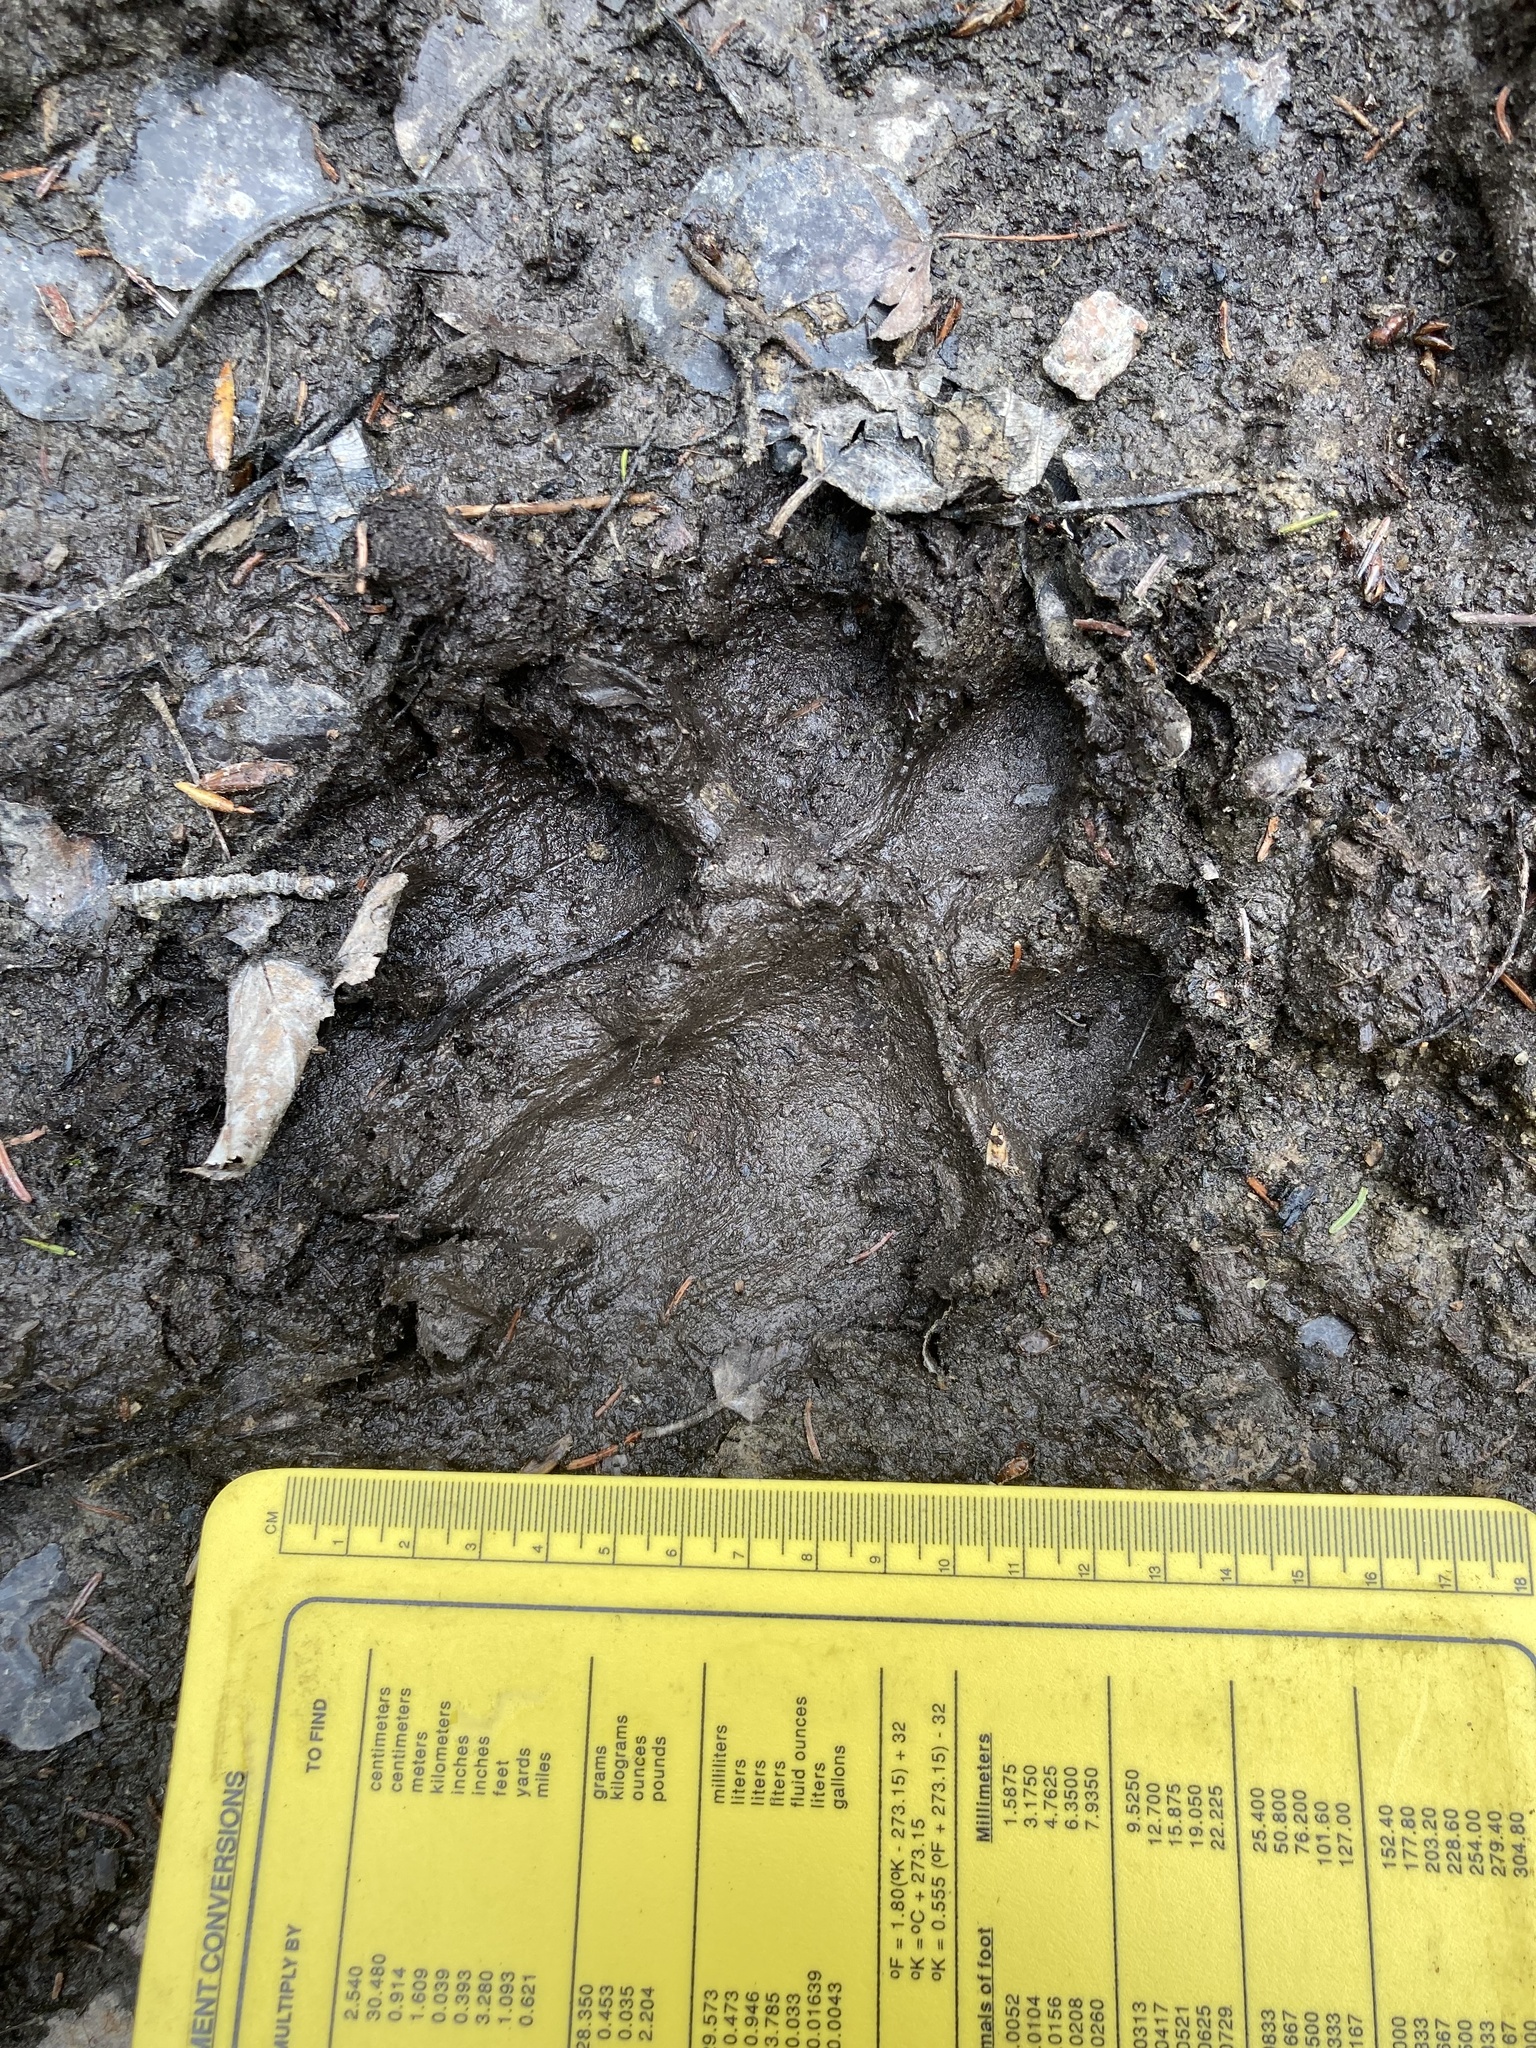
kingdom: Animalia
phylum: Chordata
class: Mammalia
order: Carnivora
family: Canidae
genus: Canis
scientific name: Canis lupus
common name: Gray wolf
